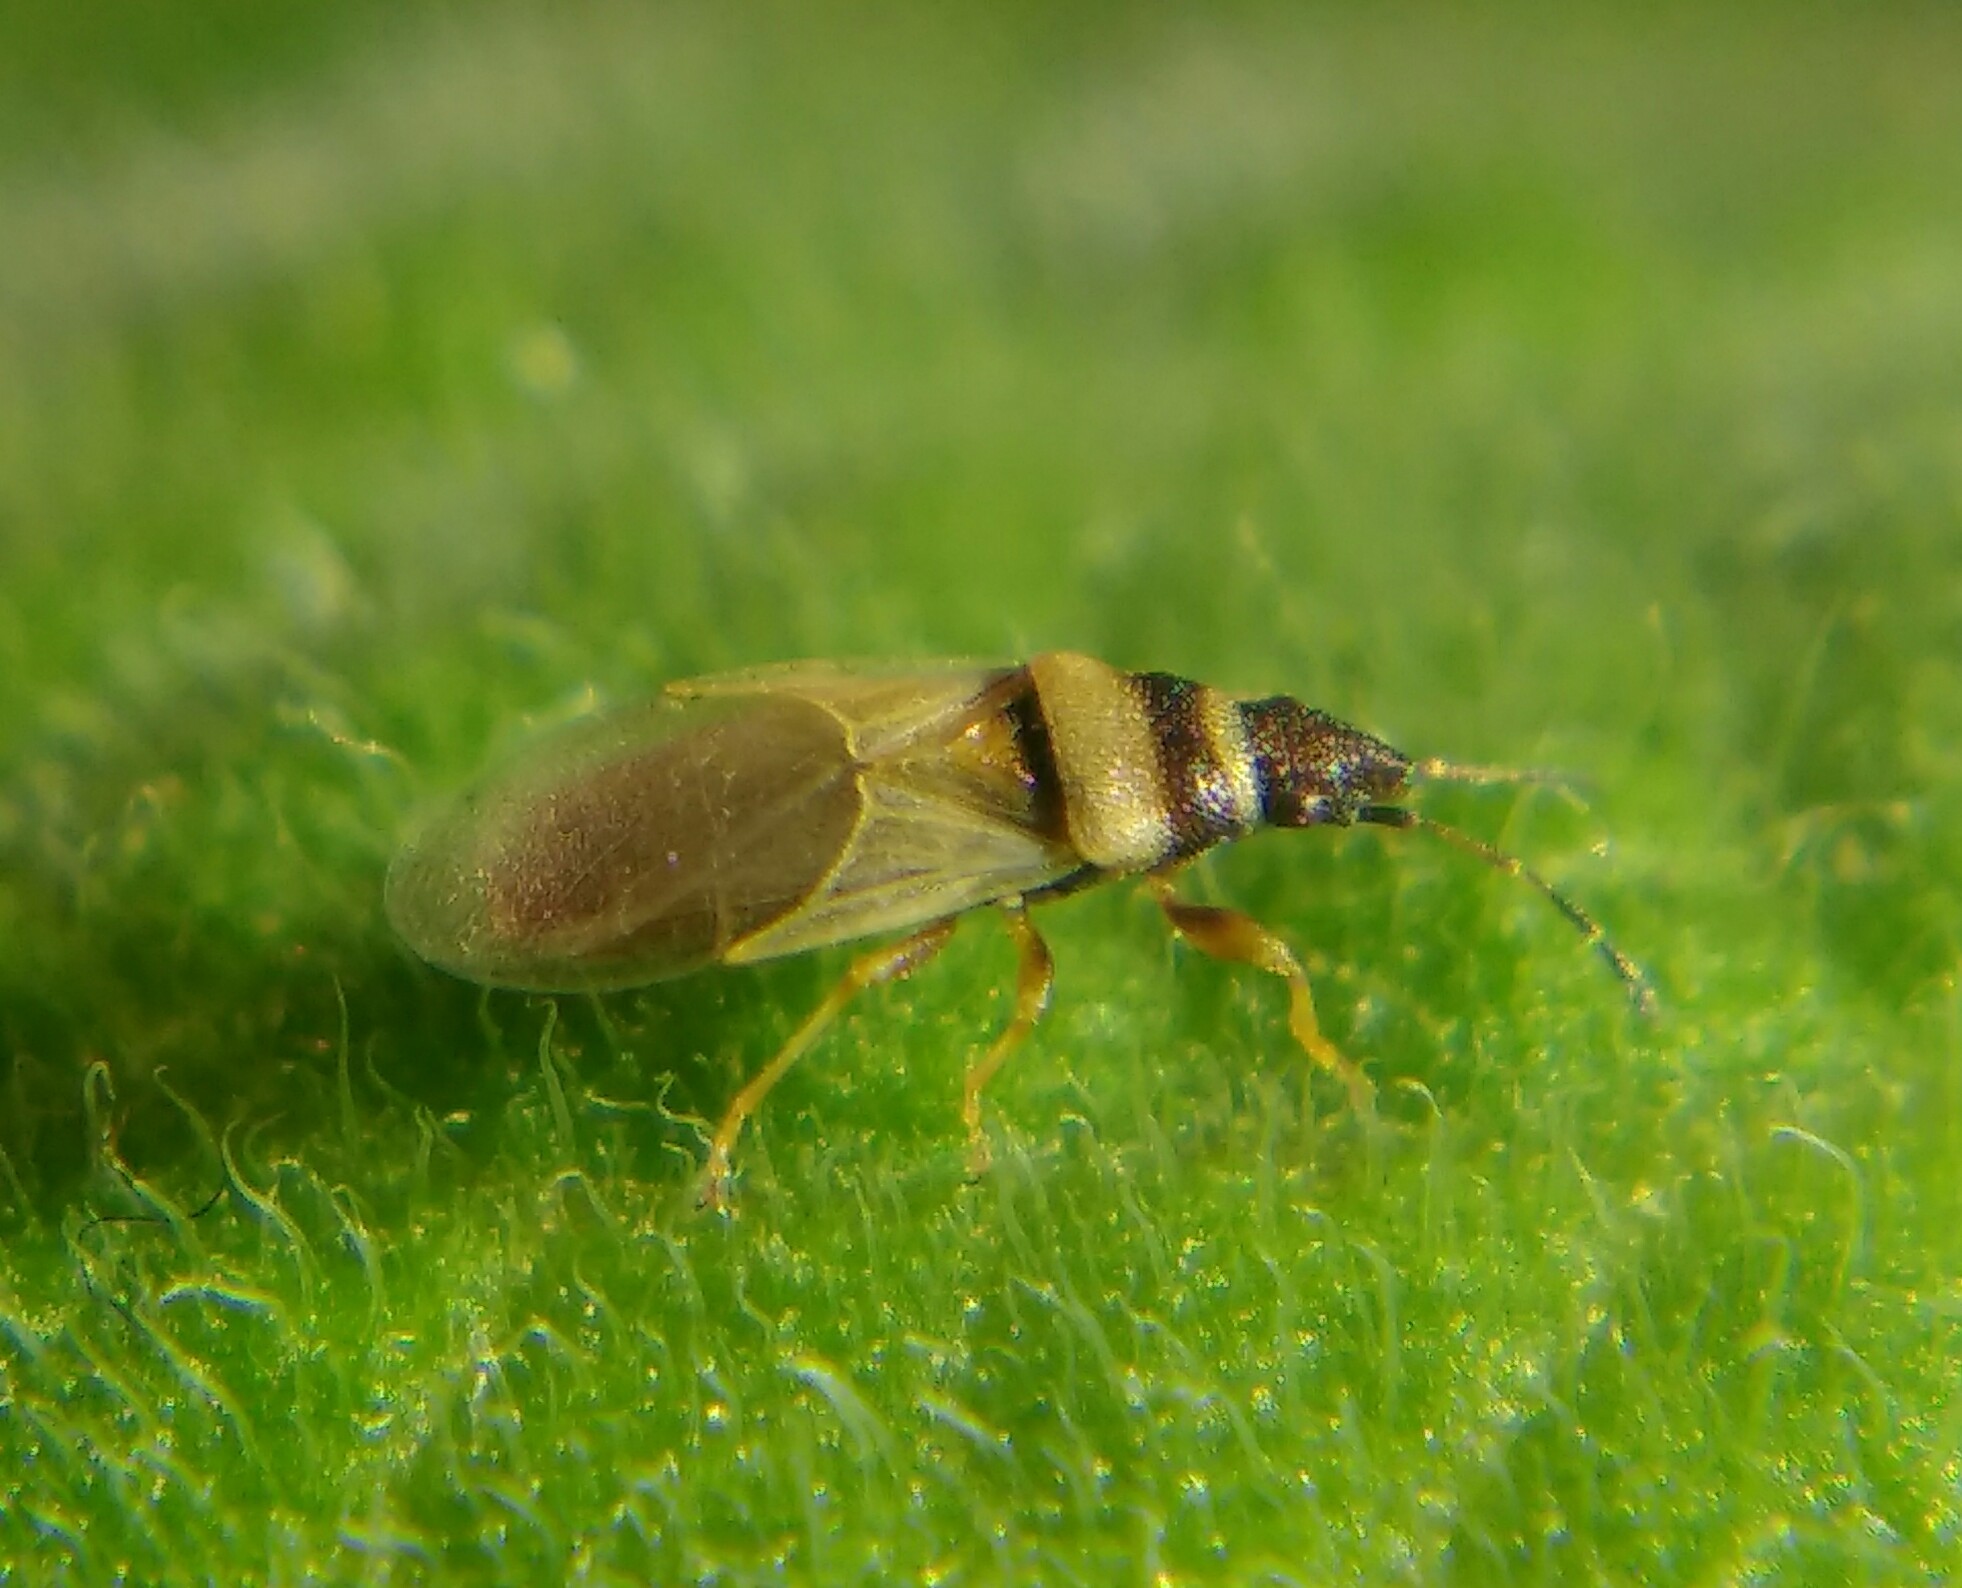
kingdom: Animalia
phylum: Arthropoda
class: Insecta
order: Hemiptera
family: Oxycarenidae
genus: Oxycarenus
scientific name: Oxycarenus pallens
